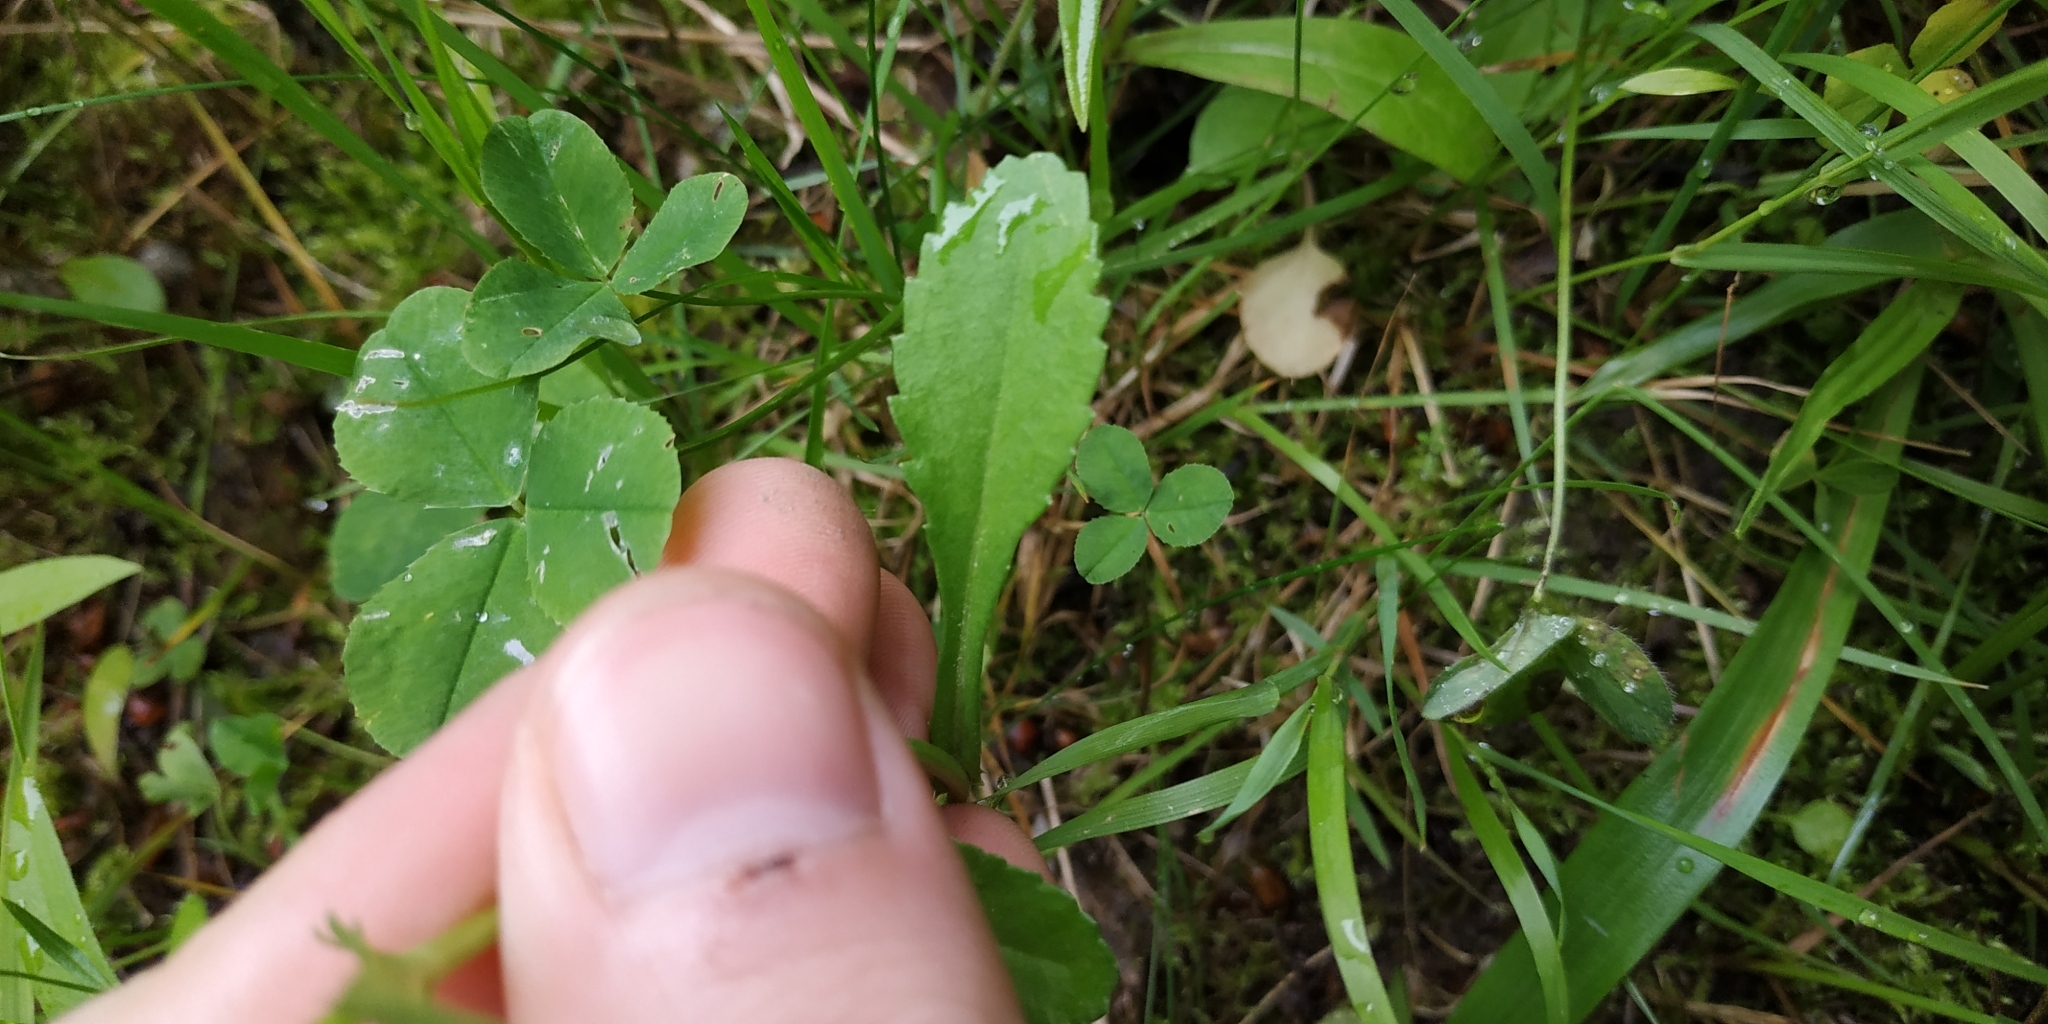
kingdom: Plantae
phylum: Tracheophyta
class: Magnoliopsida
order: Asterales
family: Asteraceae
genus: Leucanthemum
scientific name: Leucanthemum ircutianum
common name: Daisy
